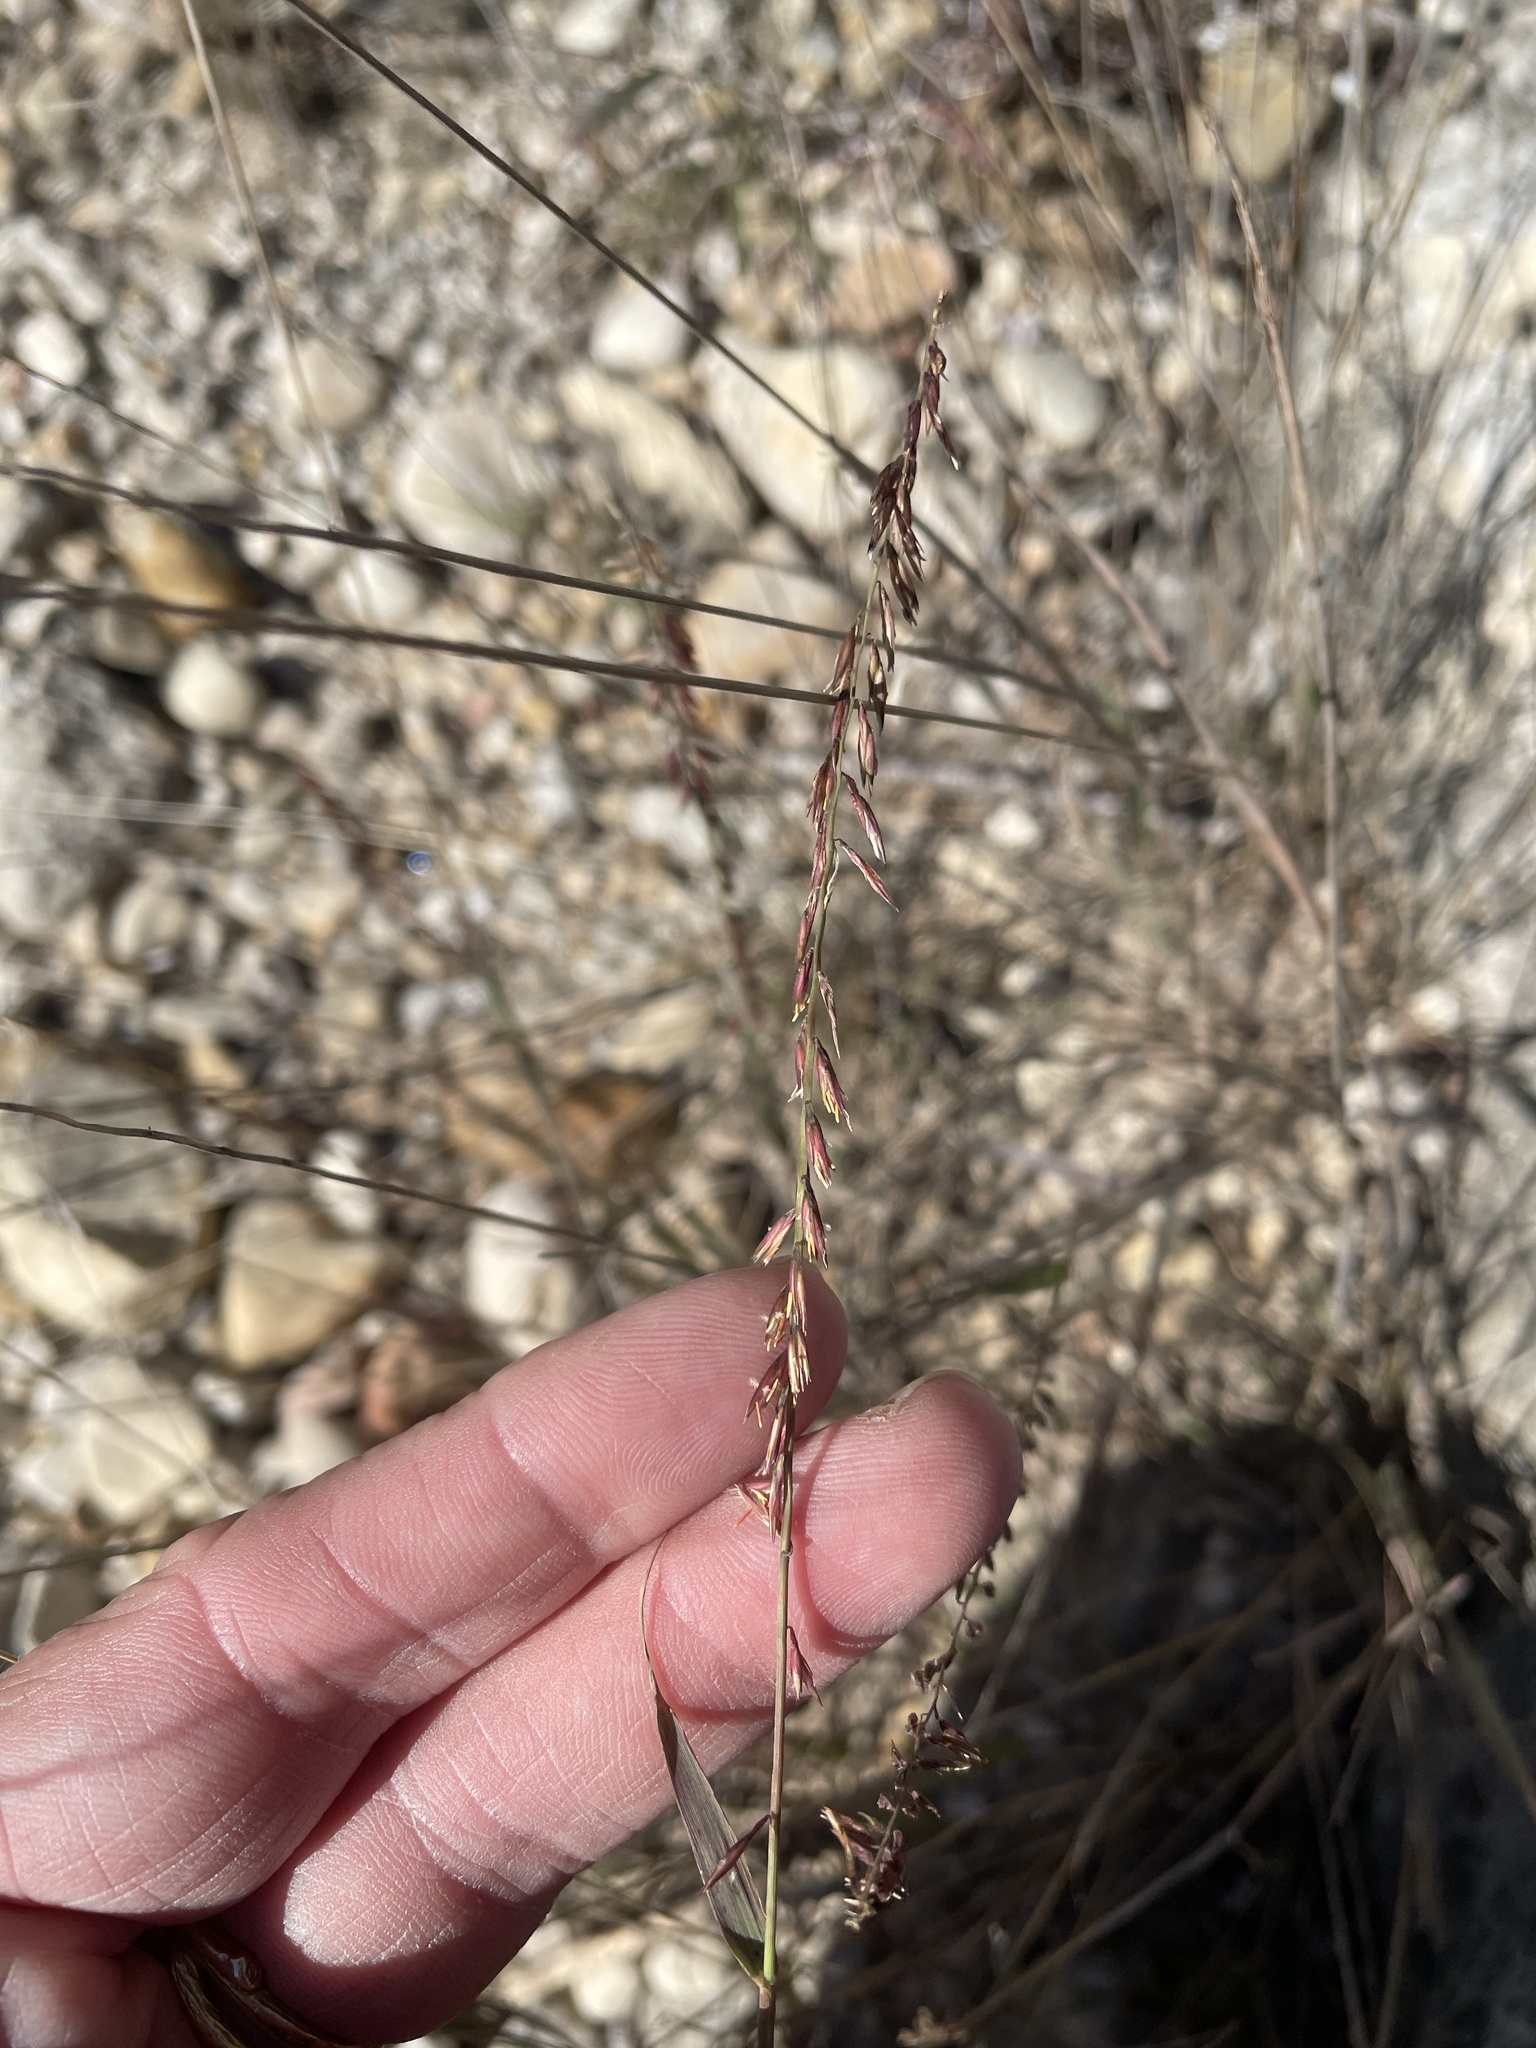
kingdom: Plantae
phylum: Tracheophyta
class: Liliopsida
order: Poales
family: Poaceae
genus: Bouteloua
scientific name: Bouteloua curtipendula
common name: Side-oats grama
